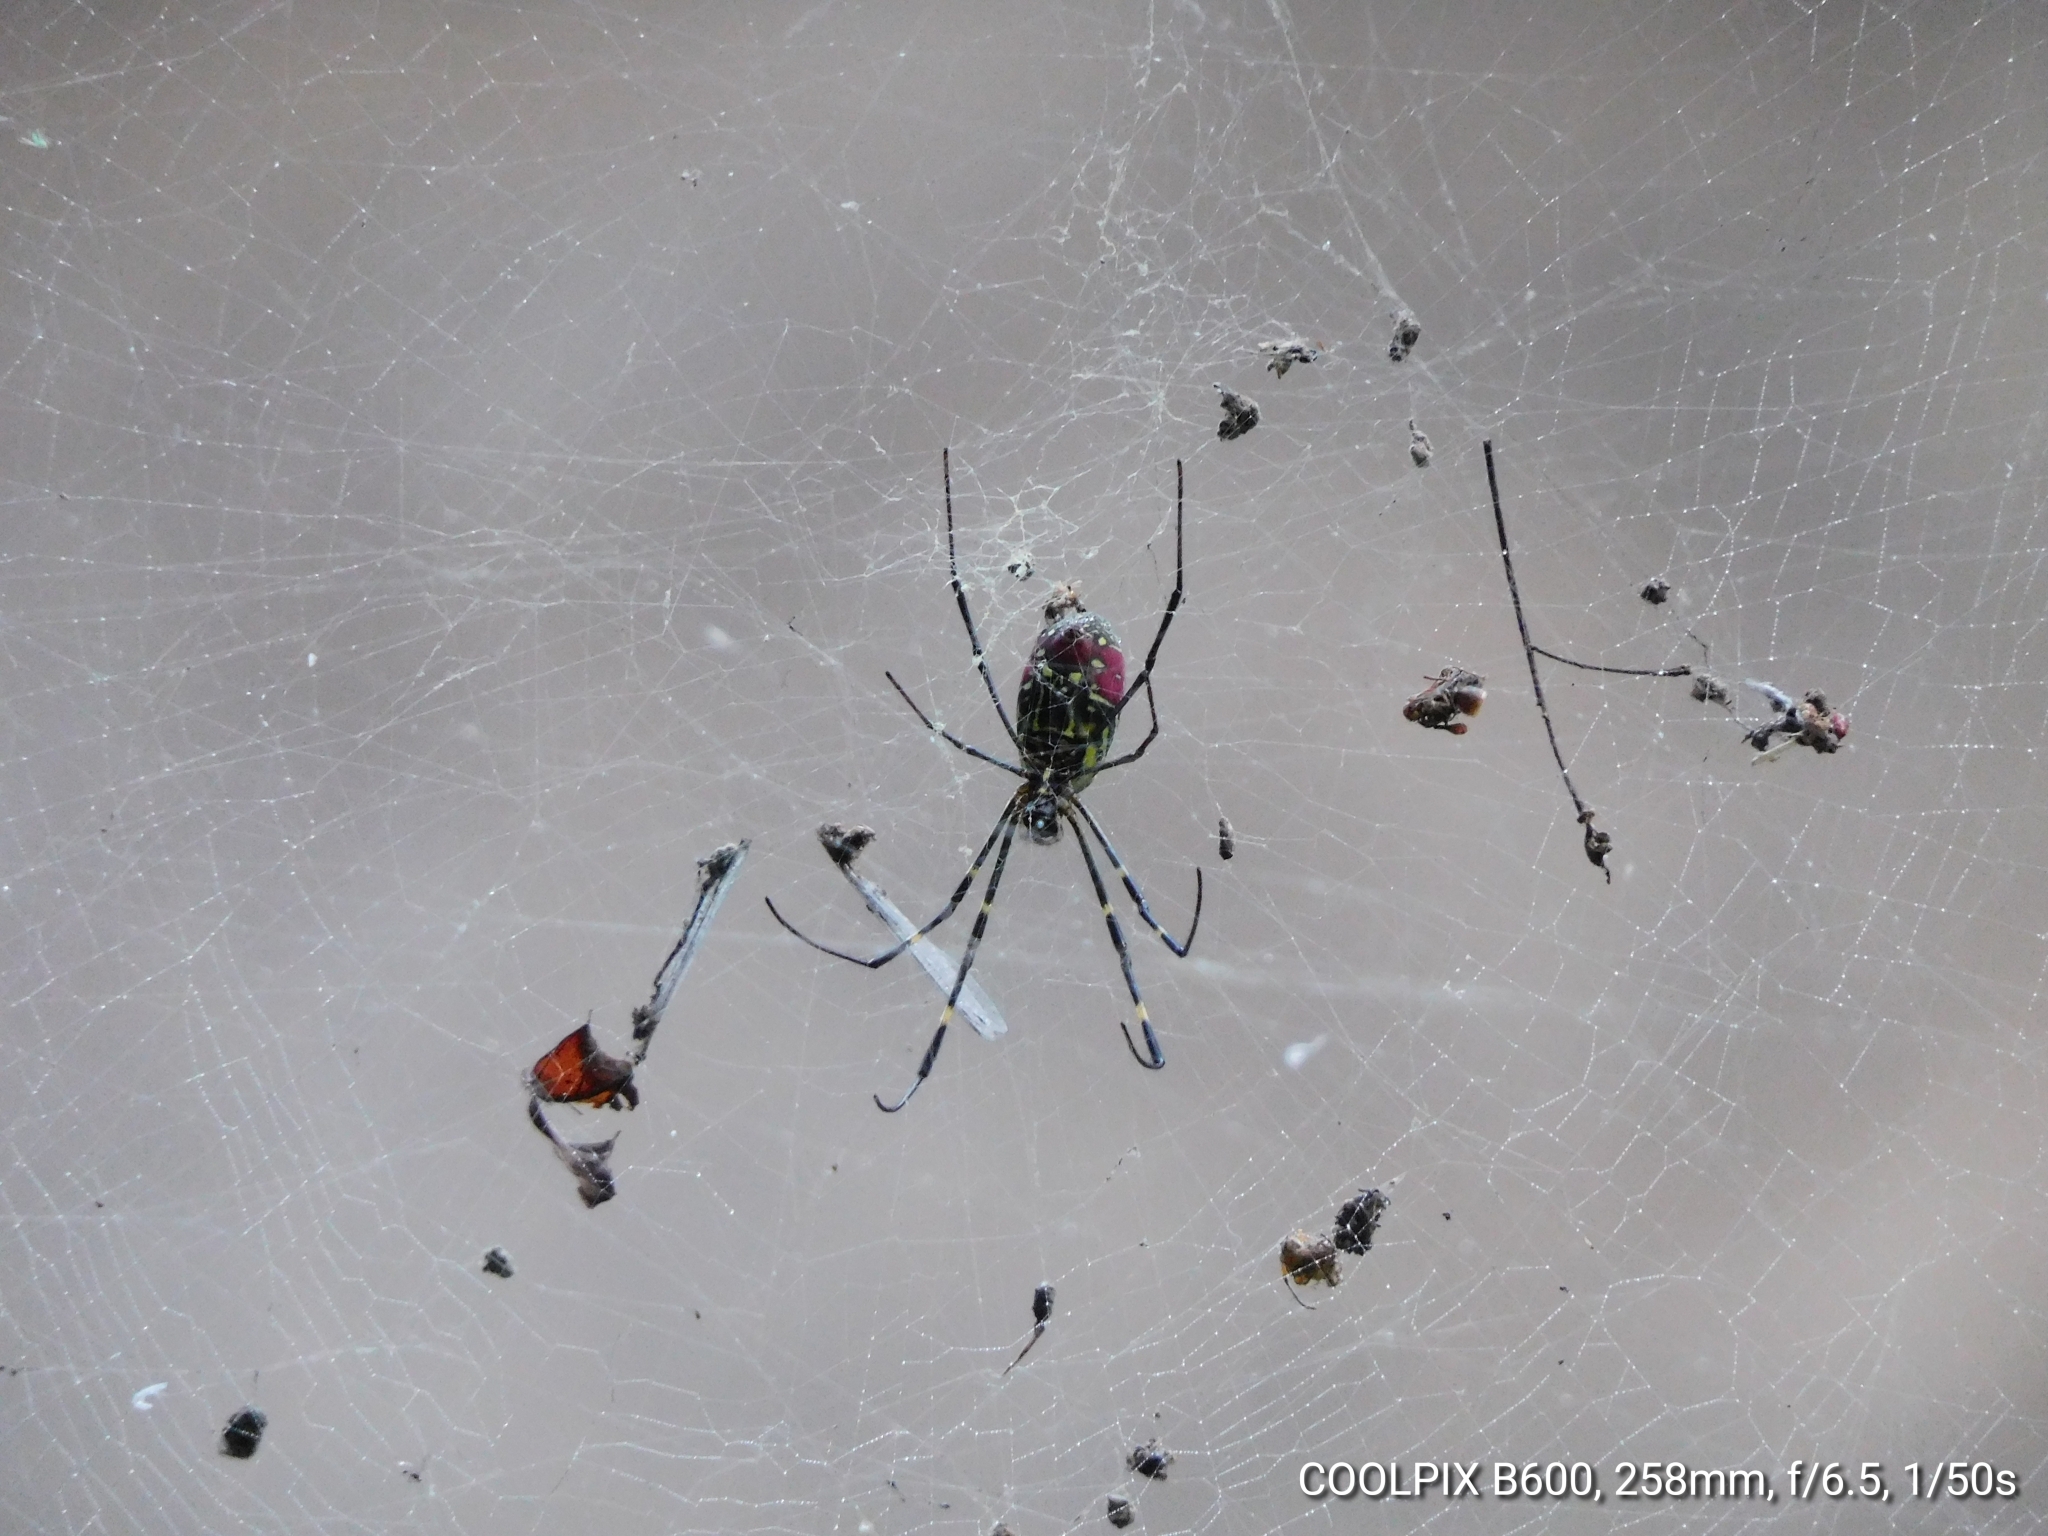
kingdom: Animalia
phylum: Arthropoda
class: Arachnida
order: Araneae
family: Araneidae
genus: Trichonephila
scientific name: Trichonephila clavata
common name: Jorō spider
